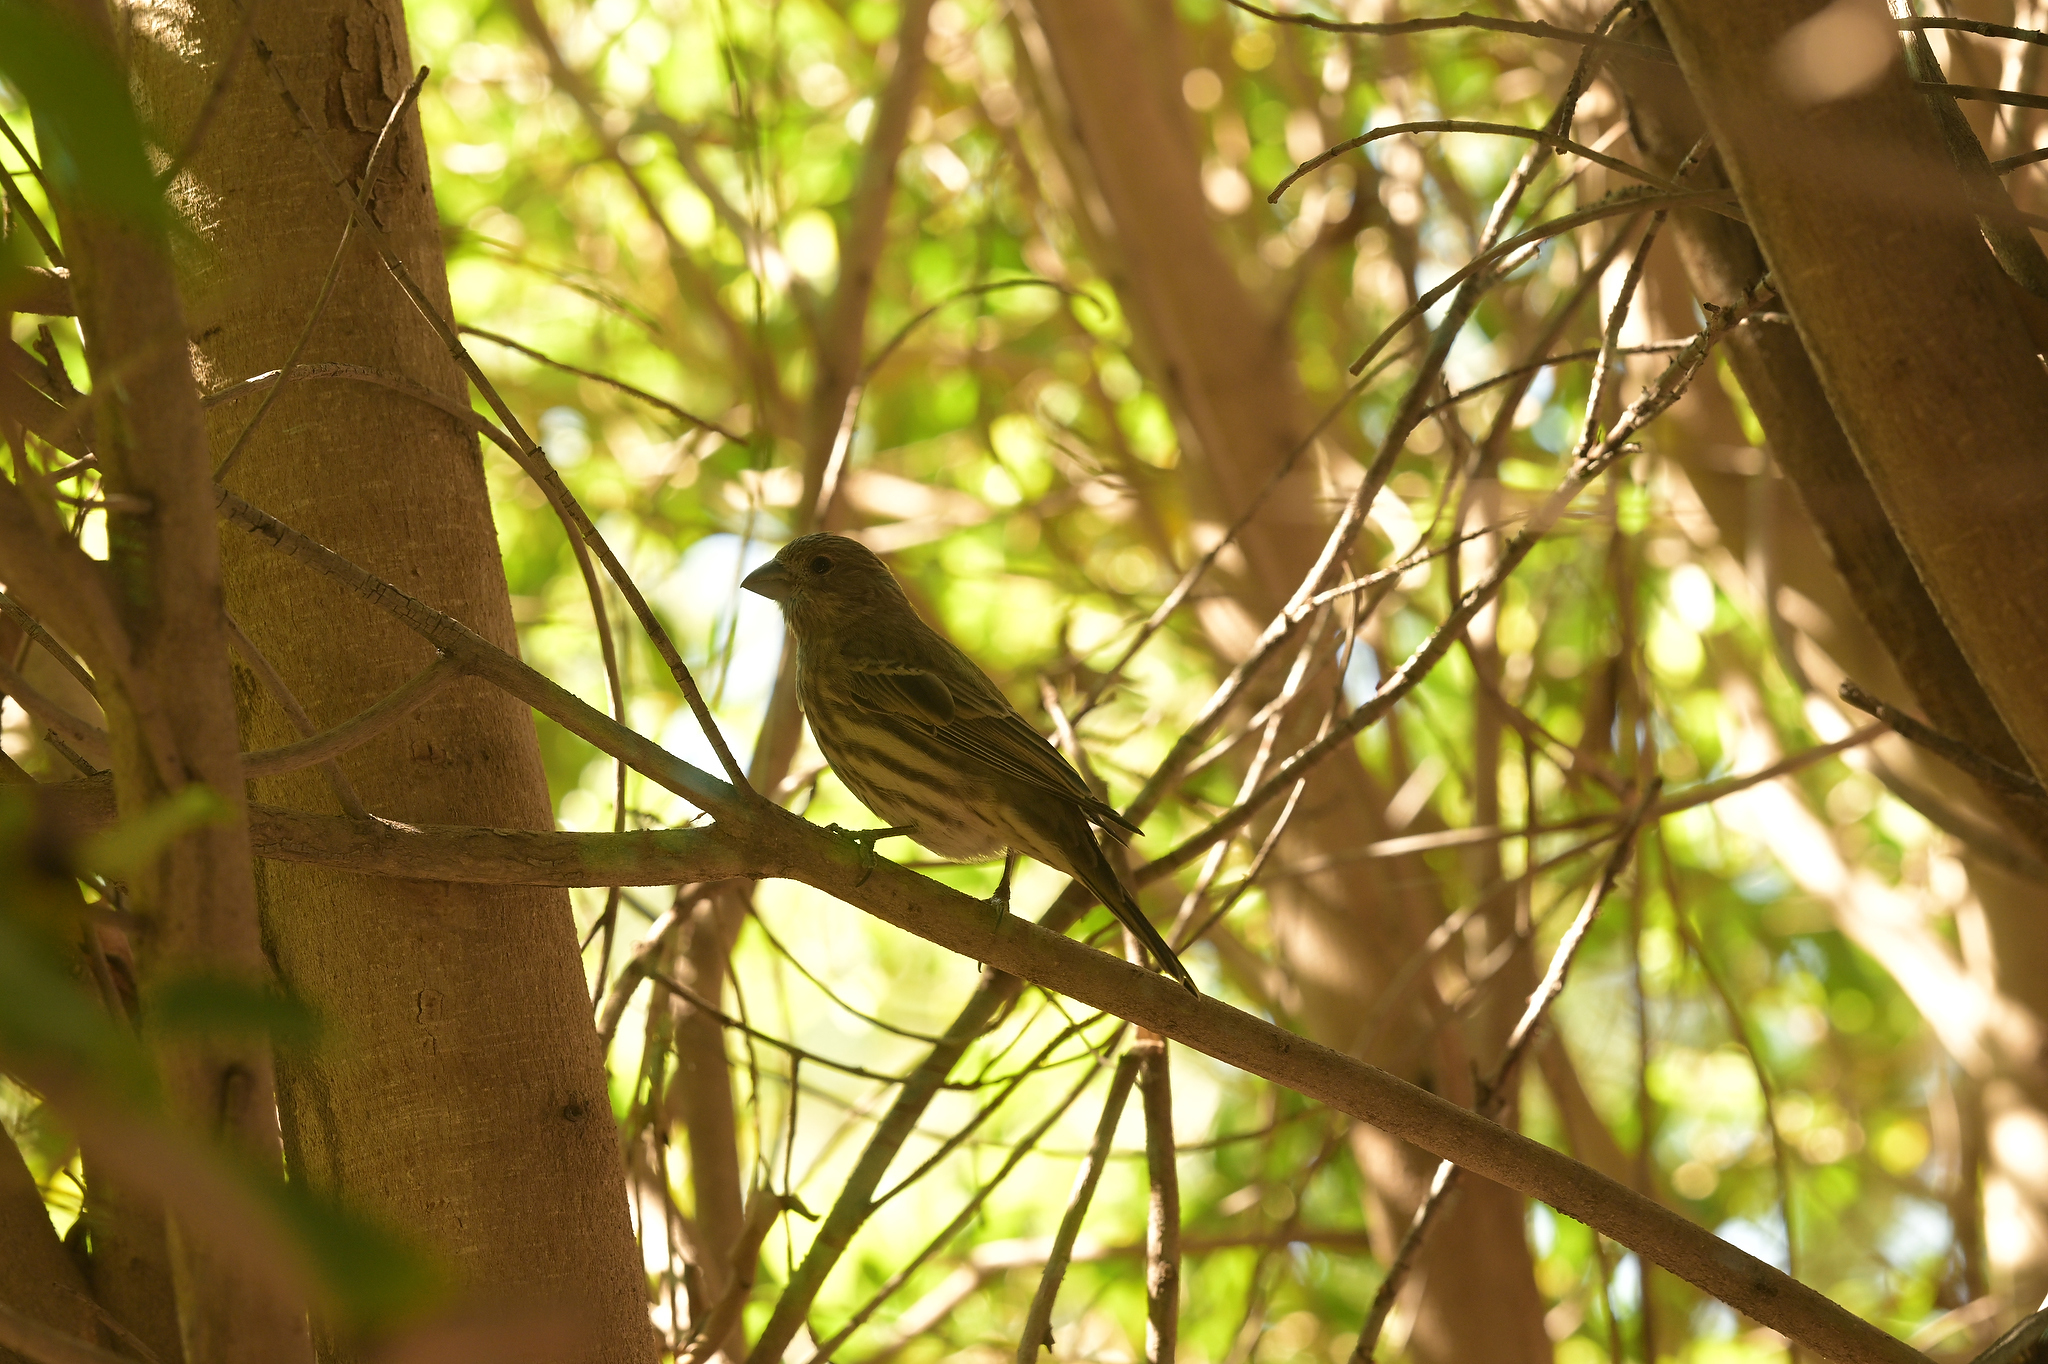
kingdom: Animalia
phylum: Chordata
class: Aves
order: Passeriformes
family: Fringillidae
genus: Haemorhous
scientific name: Haemorhous mexicanus
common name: House finch
